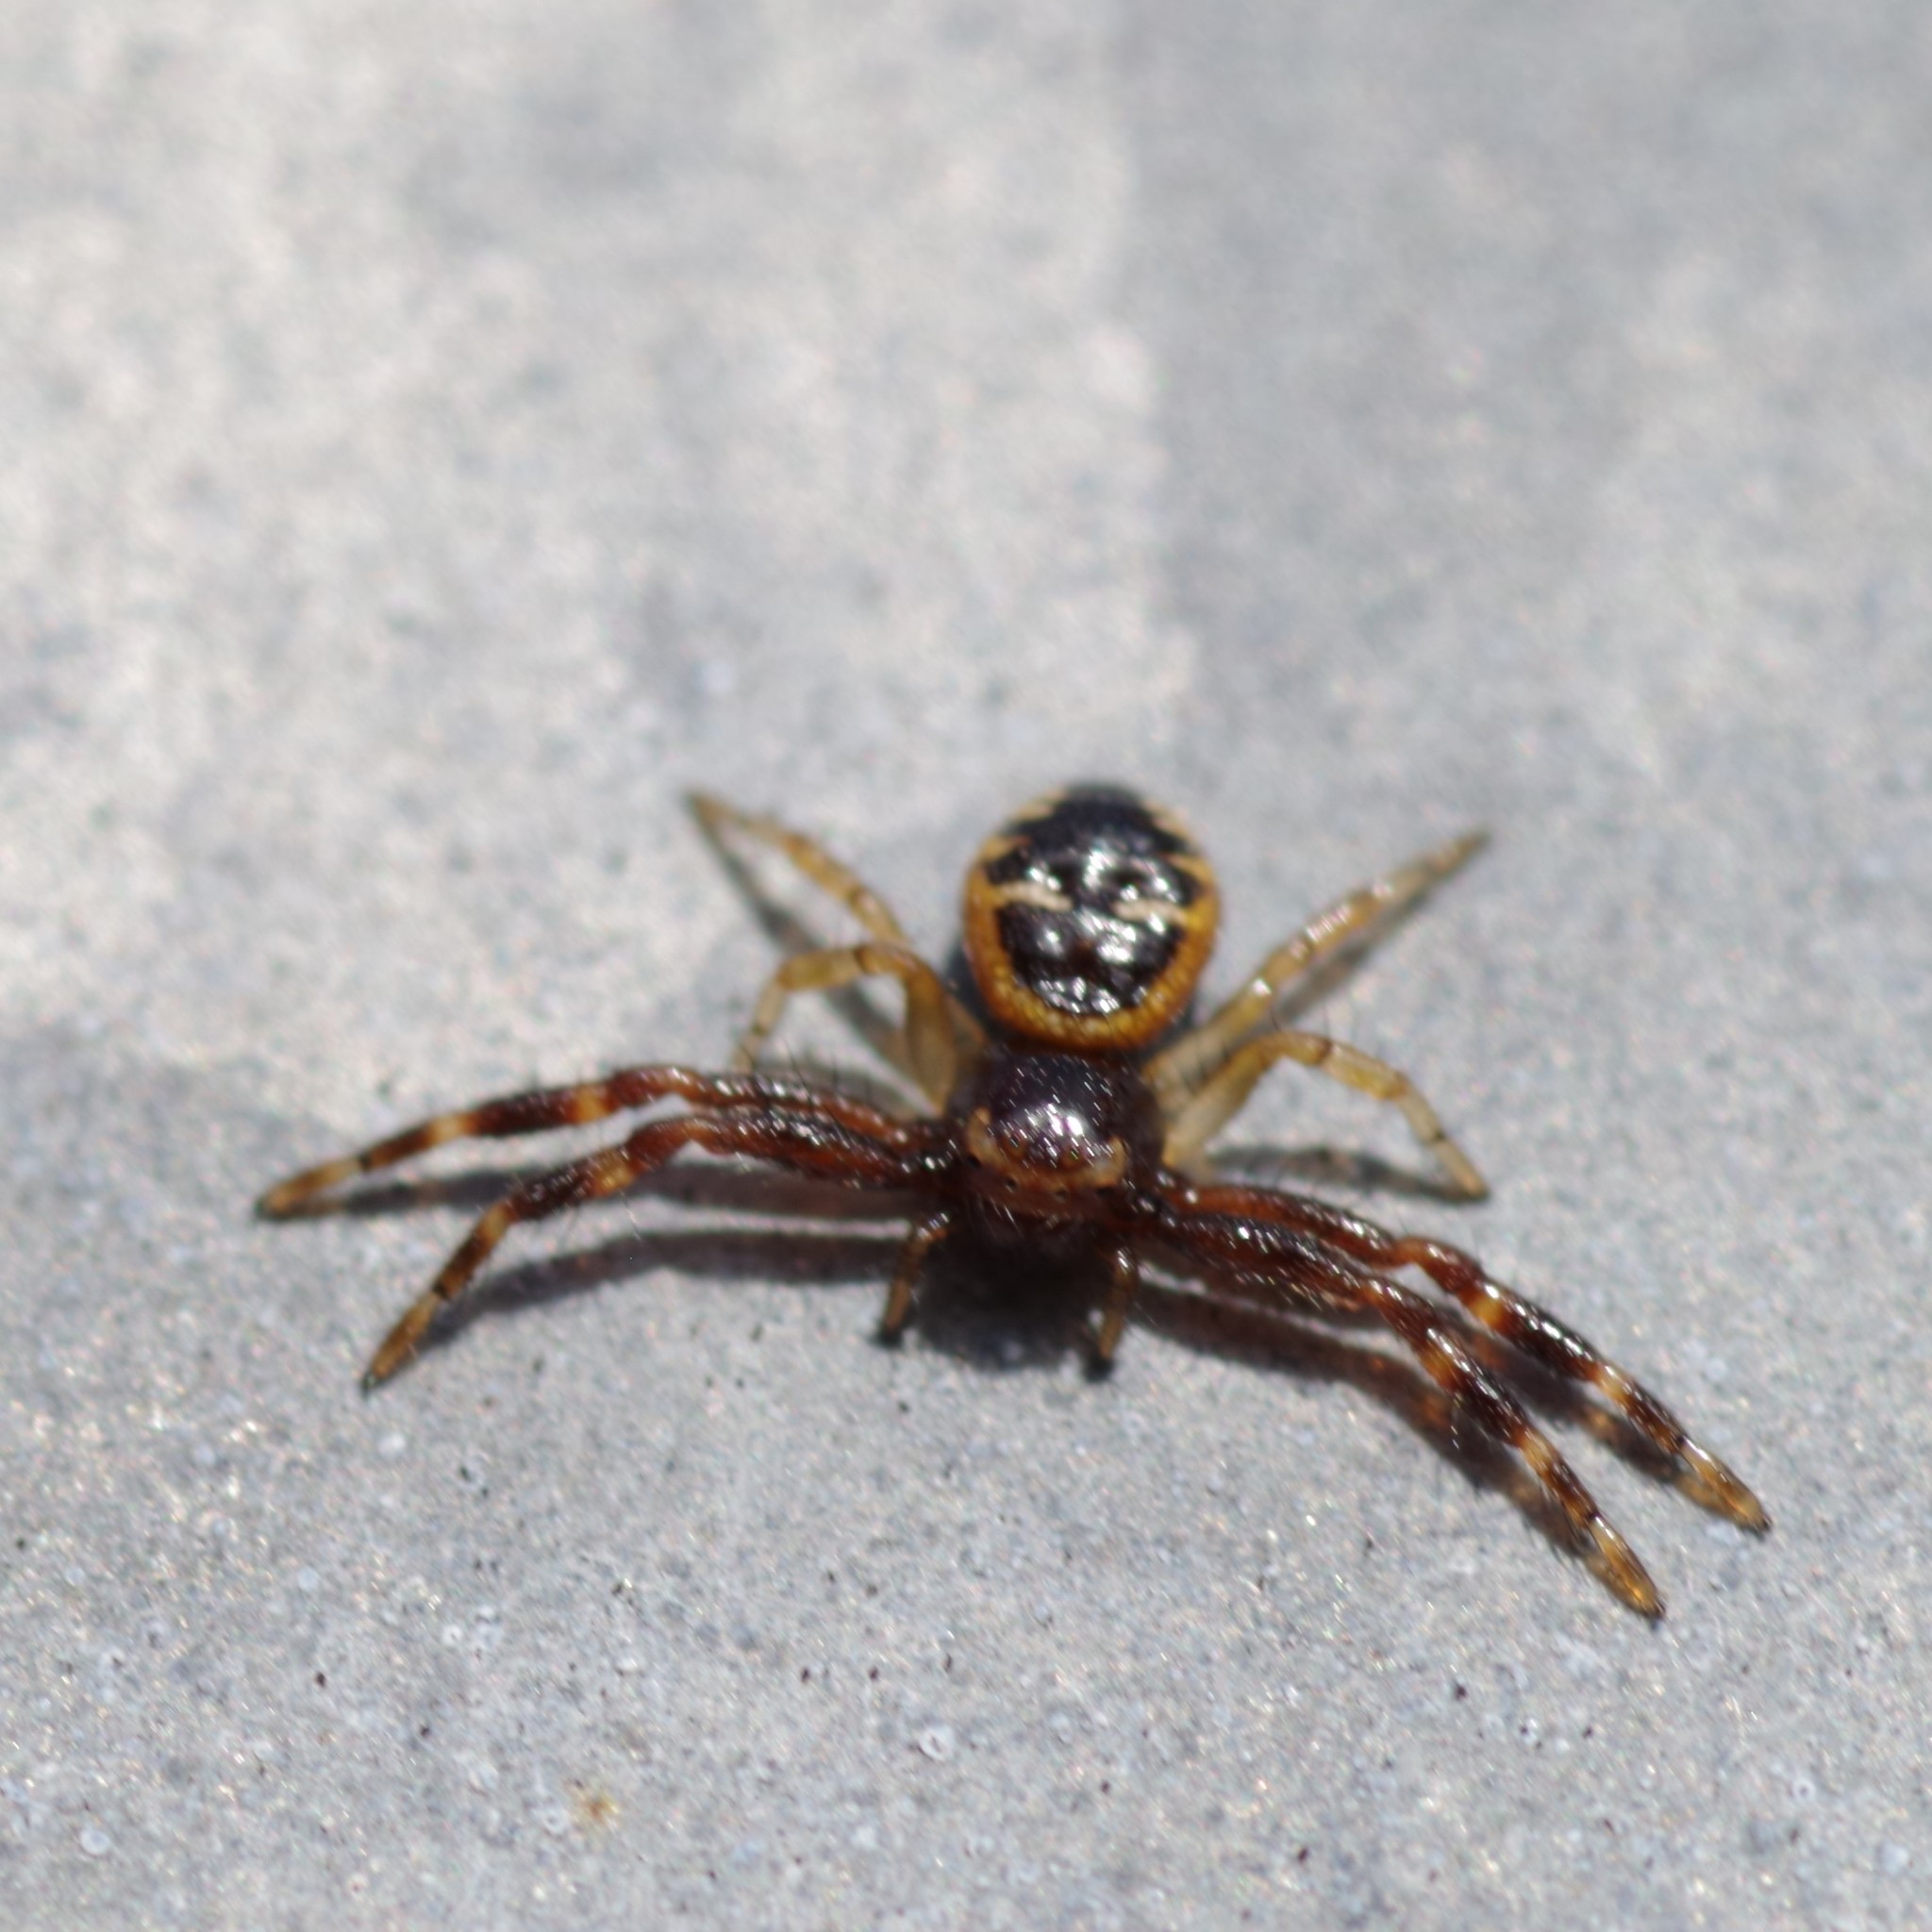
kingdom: Animalia
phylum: Arthropoda
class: Arachnida
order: Araneae
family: Thomisidae
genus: Synema
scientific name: Synema globosum
